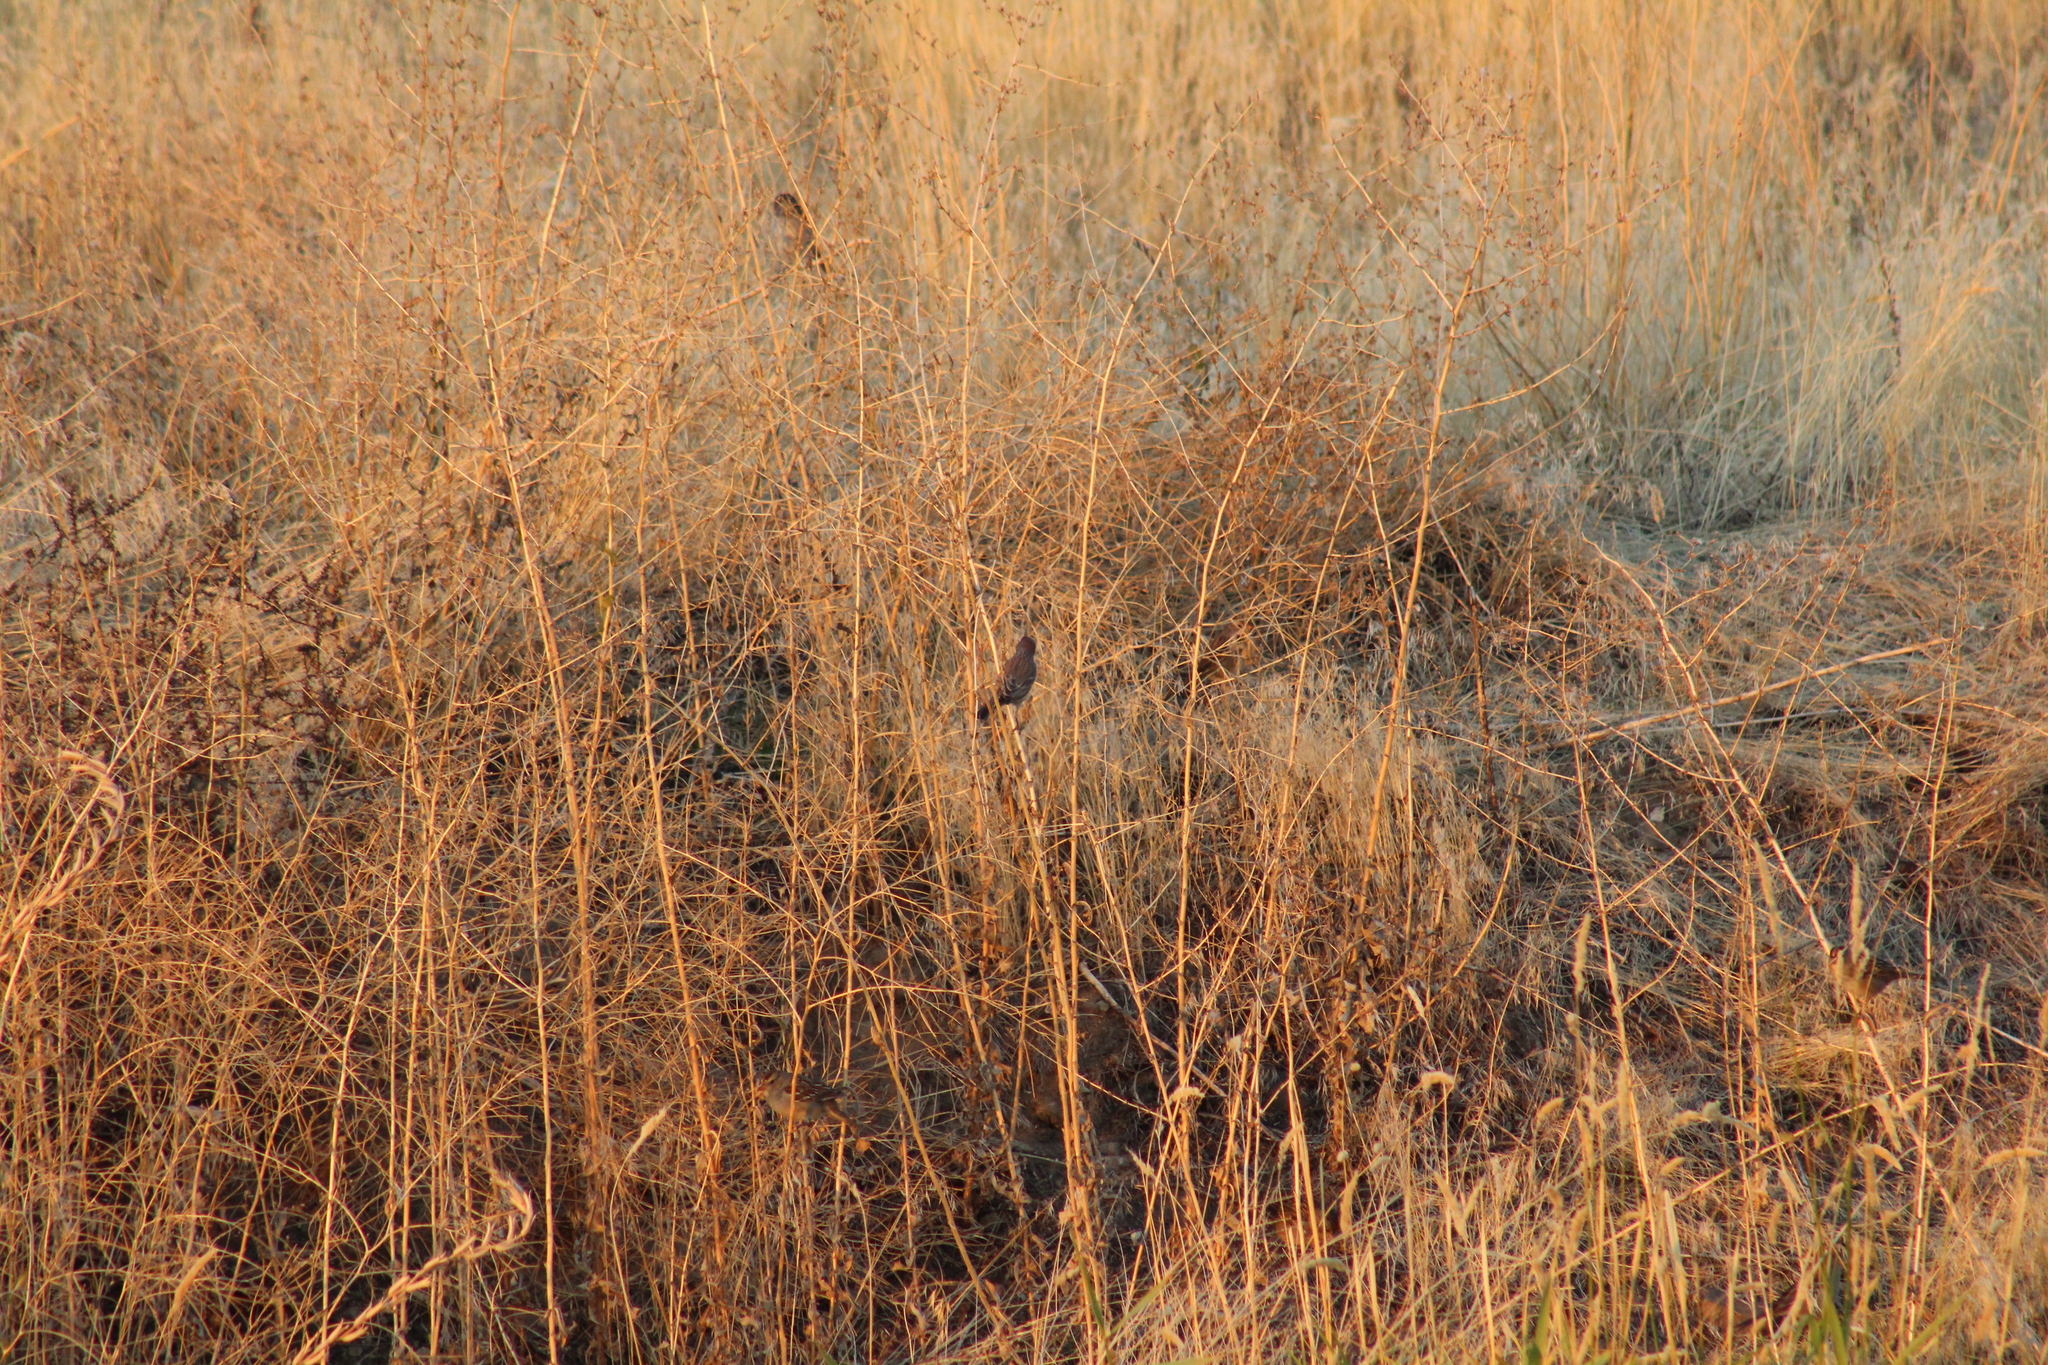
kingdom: Animalia
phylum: Chordata
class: Aves
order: Passeriformes
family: Fringillidae
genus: Haemorhous
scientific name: Haemorhous mexicanus
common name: House finch
